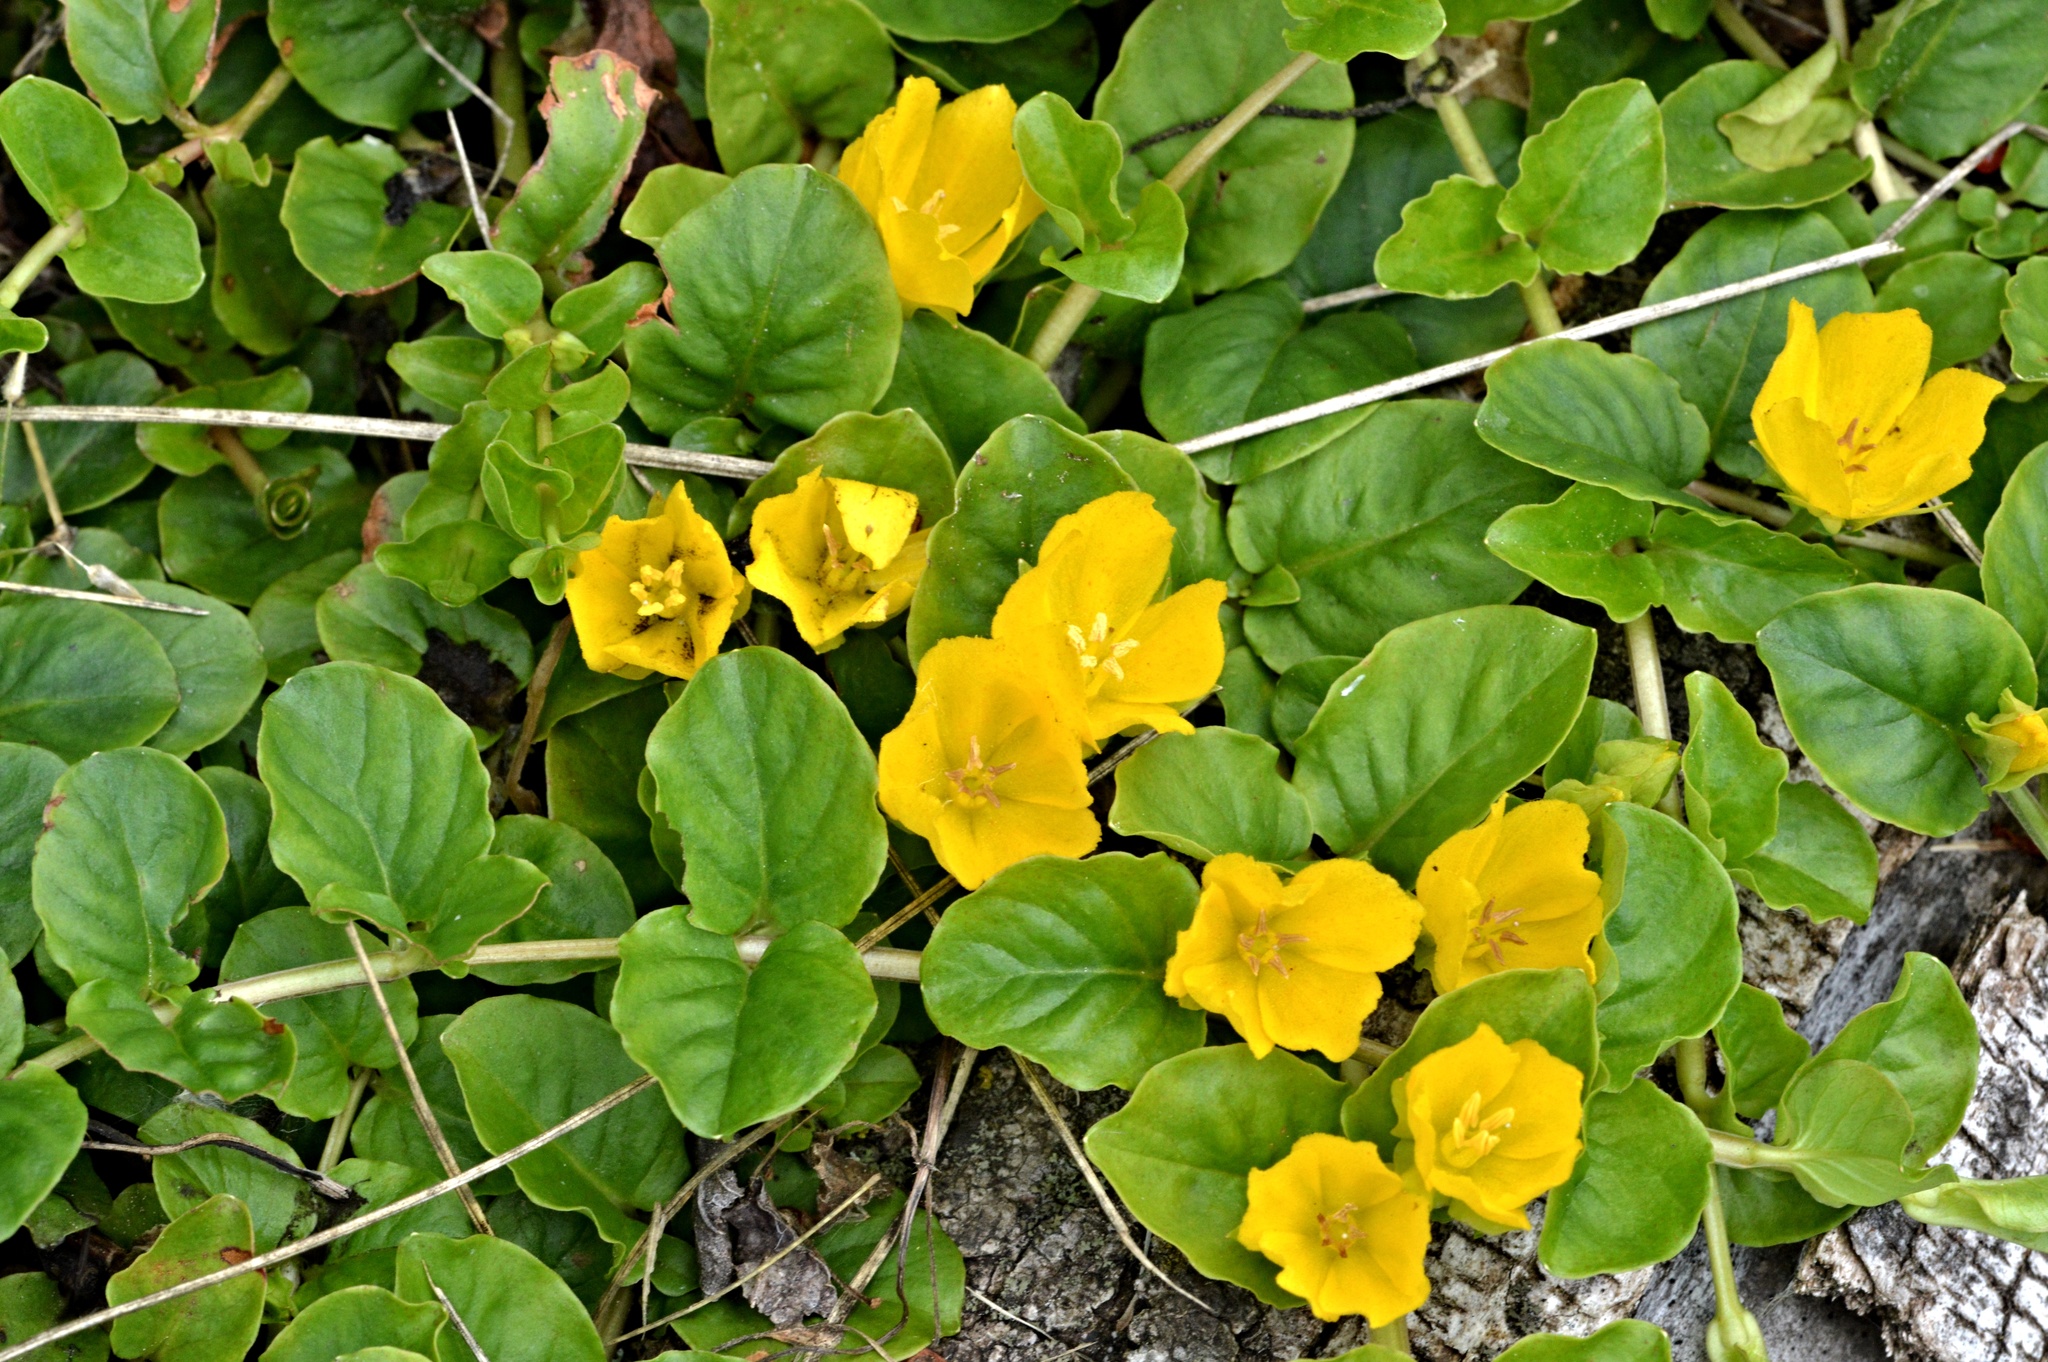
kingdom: Plantae
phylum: Tracheophyta
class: Magnoliopsida
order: Ericales
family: Primulaceae
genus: Lysimachia
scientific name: Lysimachia nummularia
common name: Moneywort
